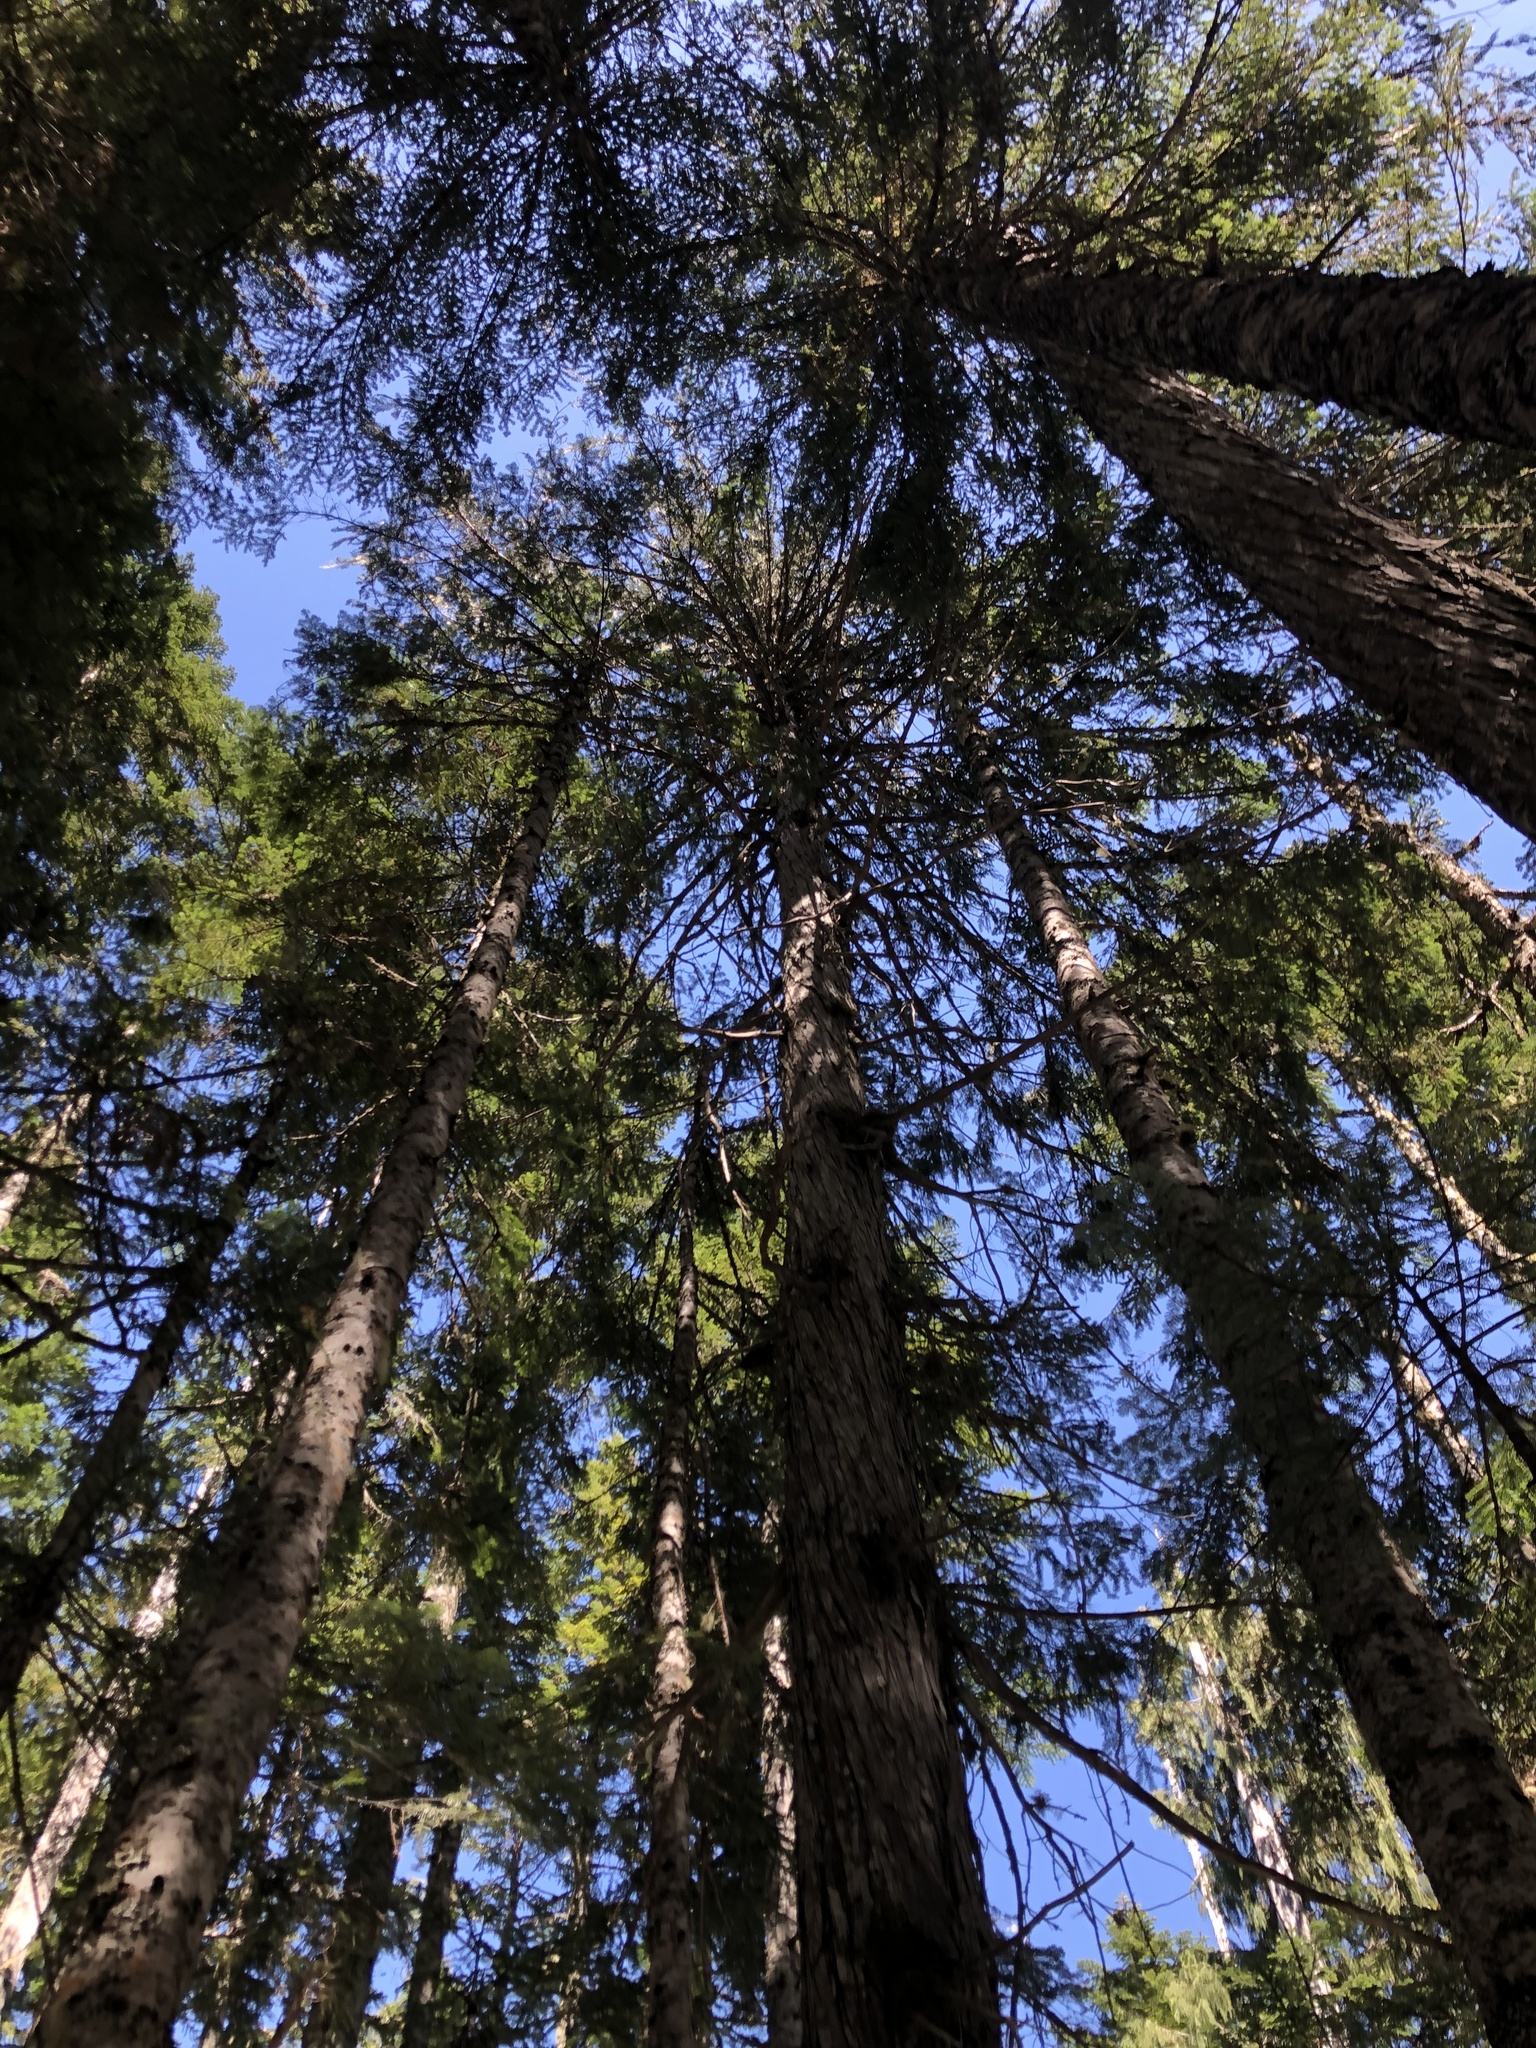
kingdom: Plantae
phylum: Tracheophyta
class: Pinopsida
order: Pinales
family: Cupressaceae
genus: Xanthocyparis
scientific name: Xanthocyparis nootkatensis
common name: Nootka cypress
